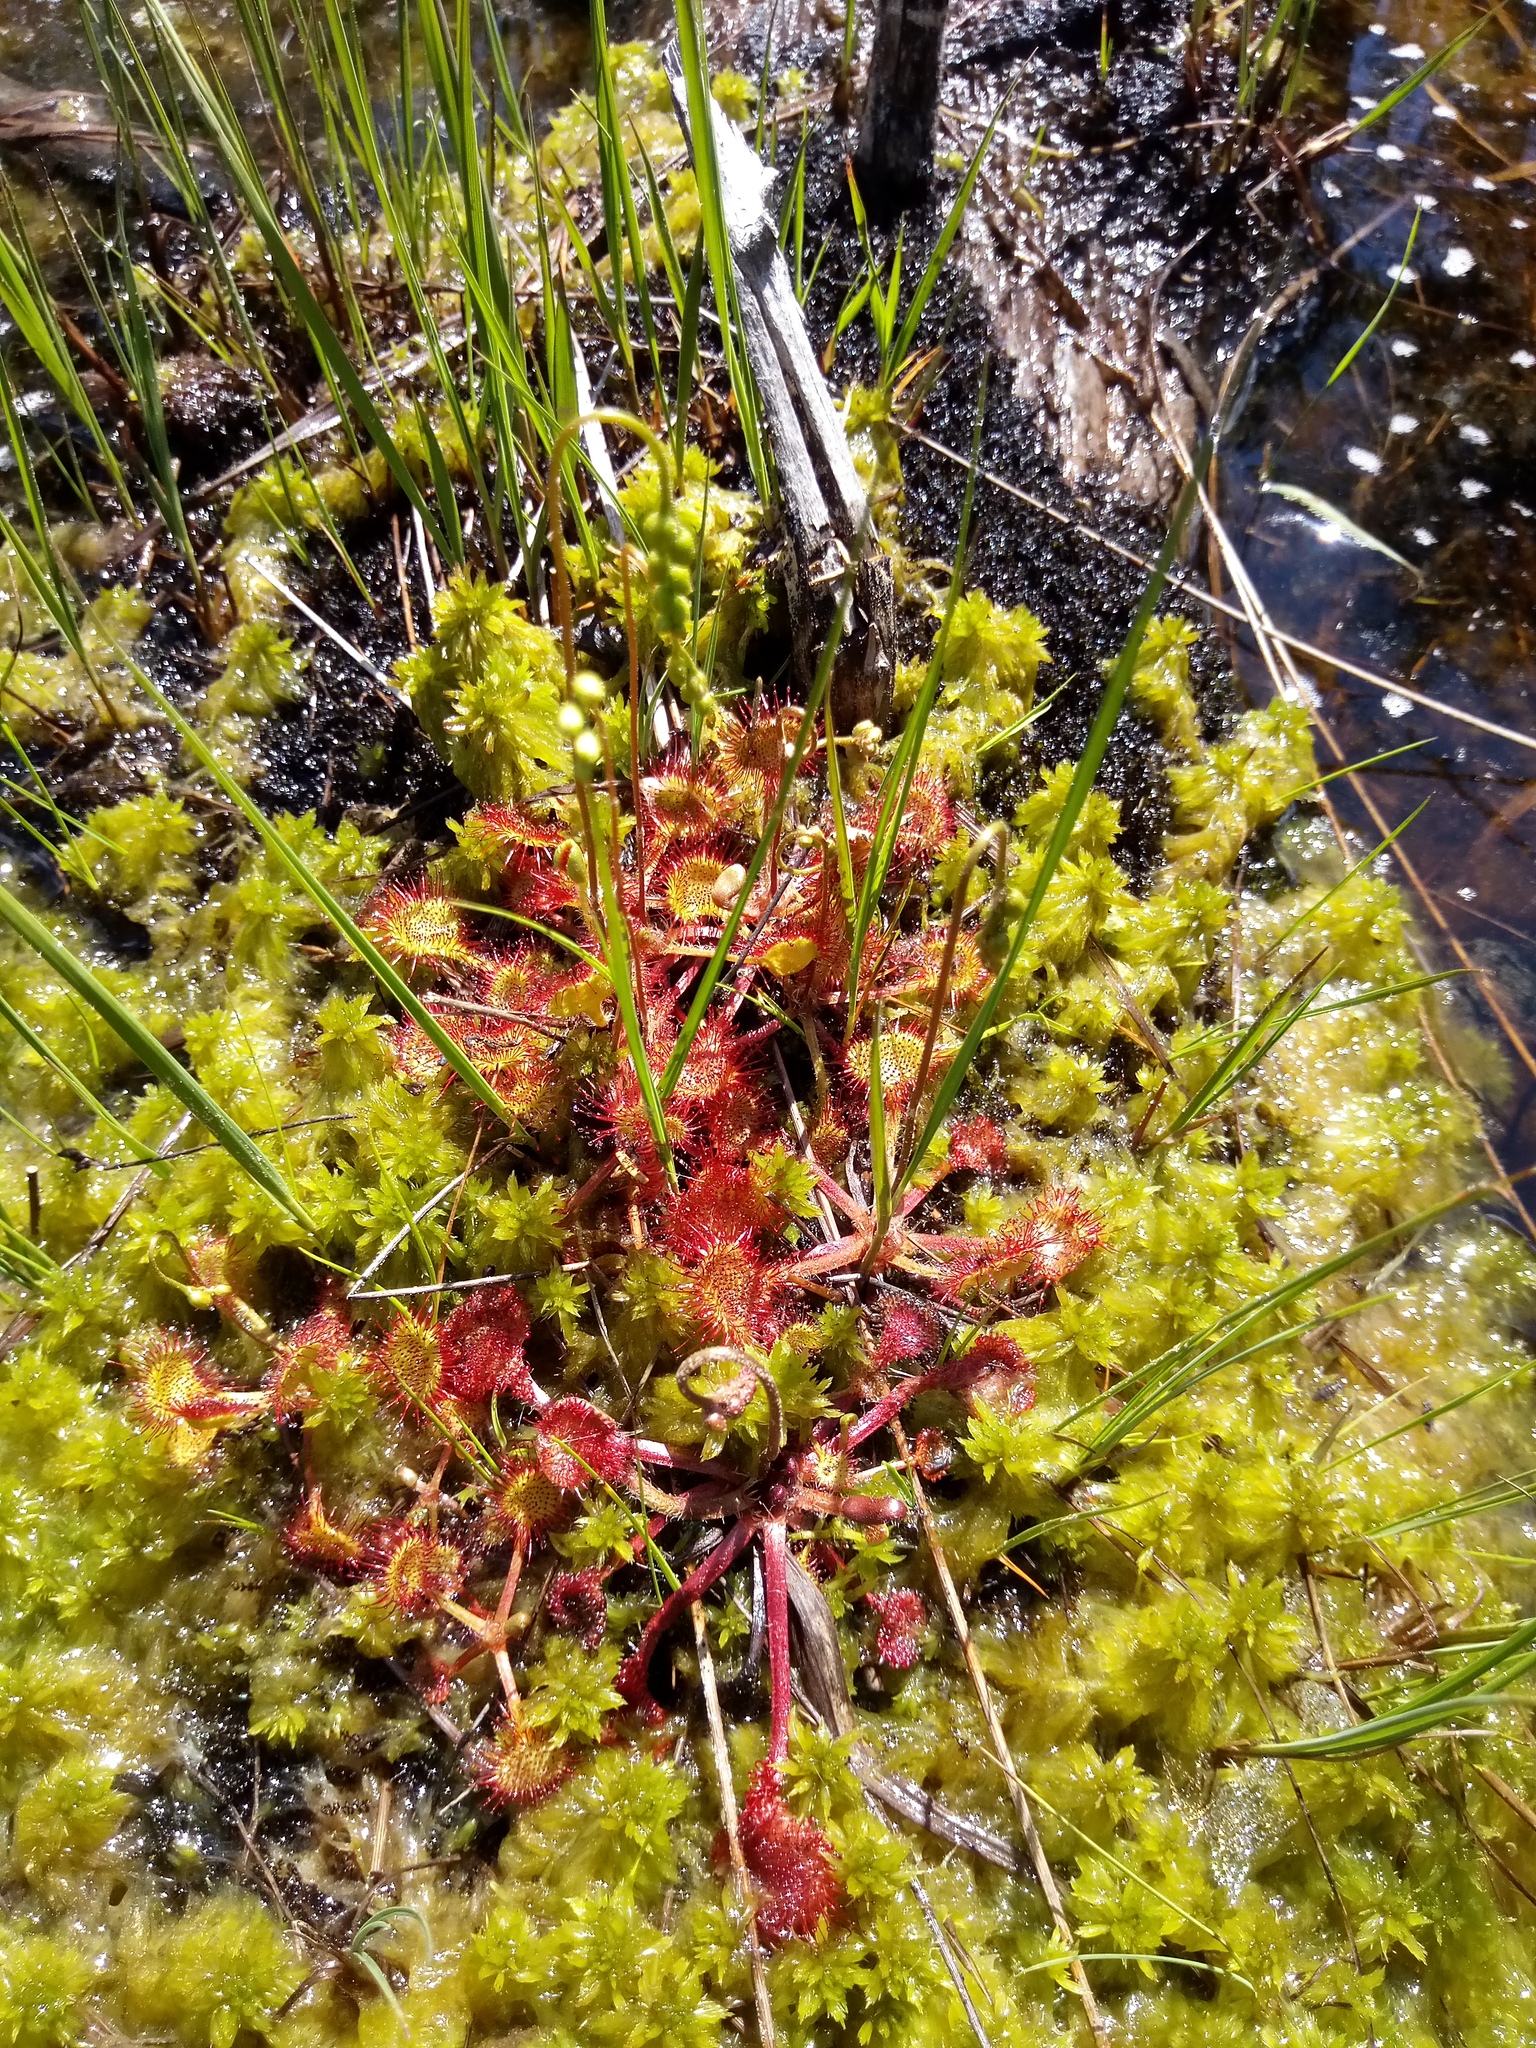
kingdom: Plantae
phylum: Tracheophyta
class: Magnoliopsida
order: Caryophyllales
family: Droseraceae
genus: Drosera
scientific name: Drosera rotundifolia
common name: Round-leaved sundew
